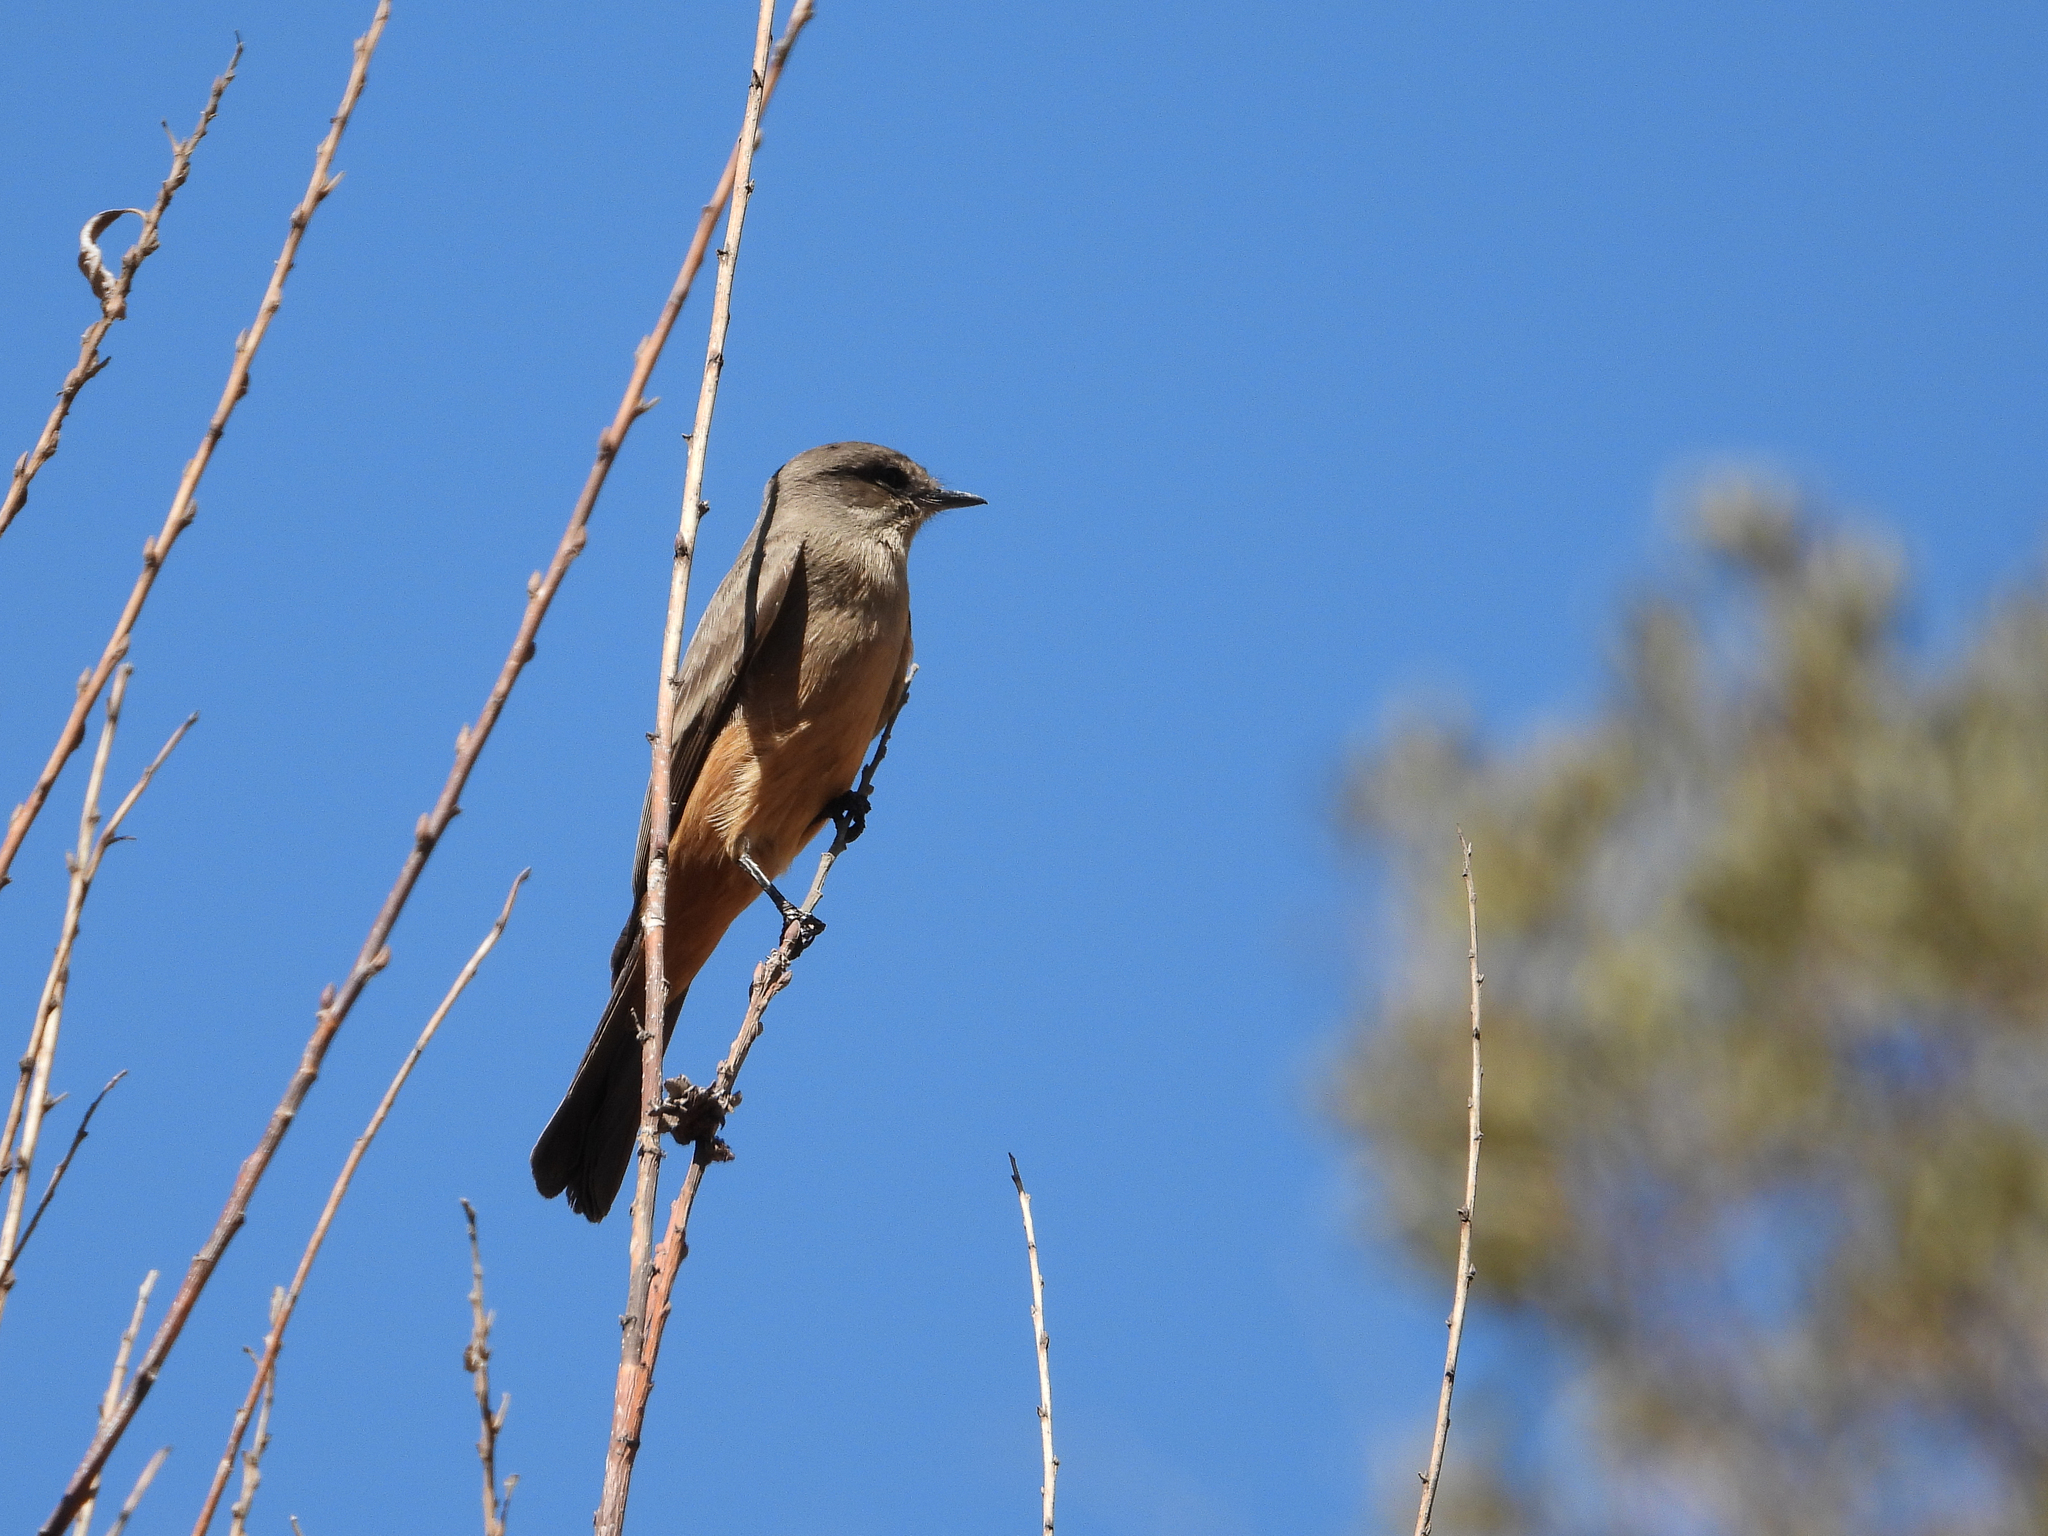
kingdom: Animalia
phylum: Chordata
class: Aves
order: Passeriformes
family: Tyrannidae
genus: Sayornis
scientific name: Sayornis saya
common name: Say's phoebe
